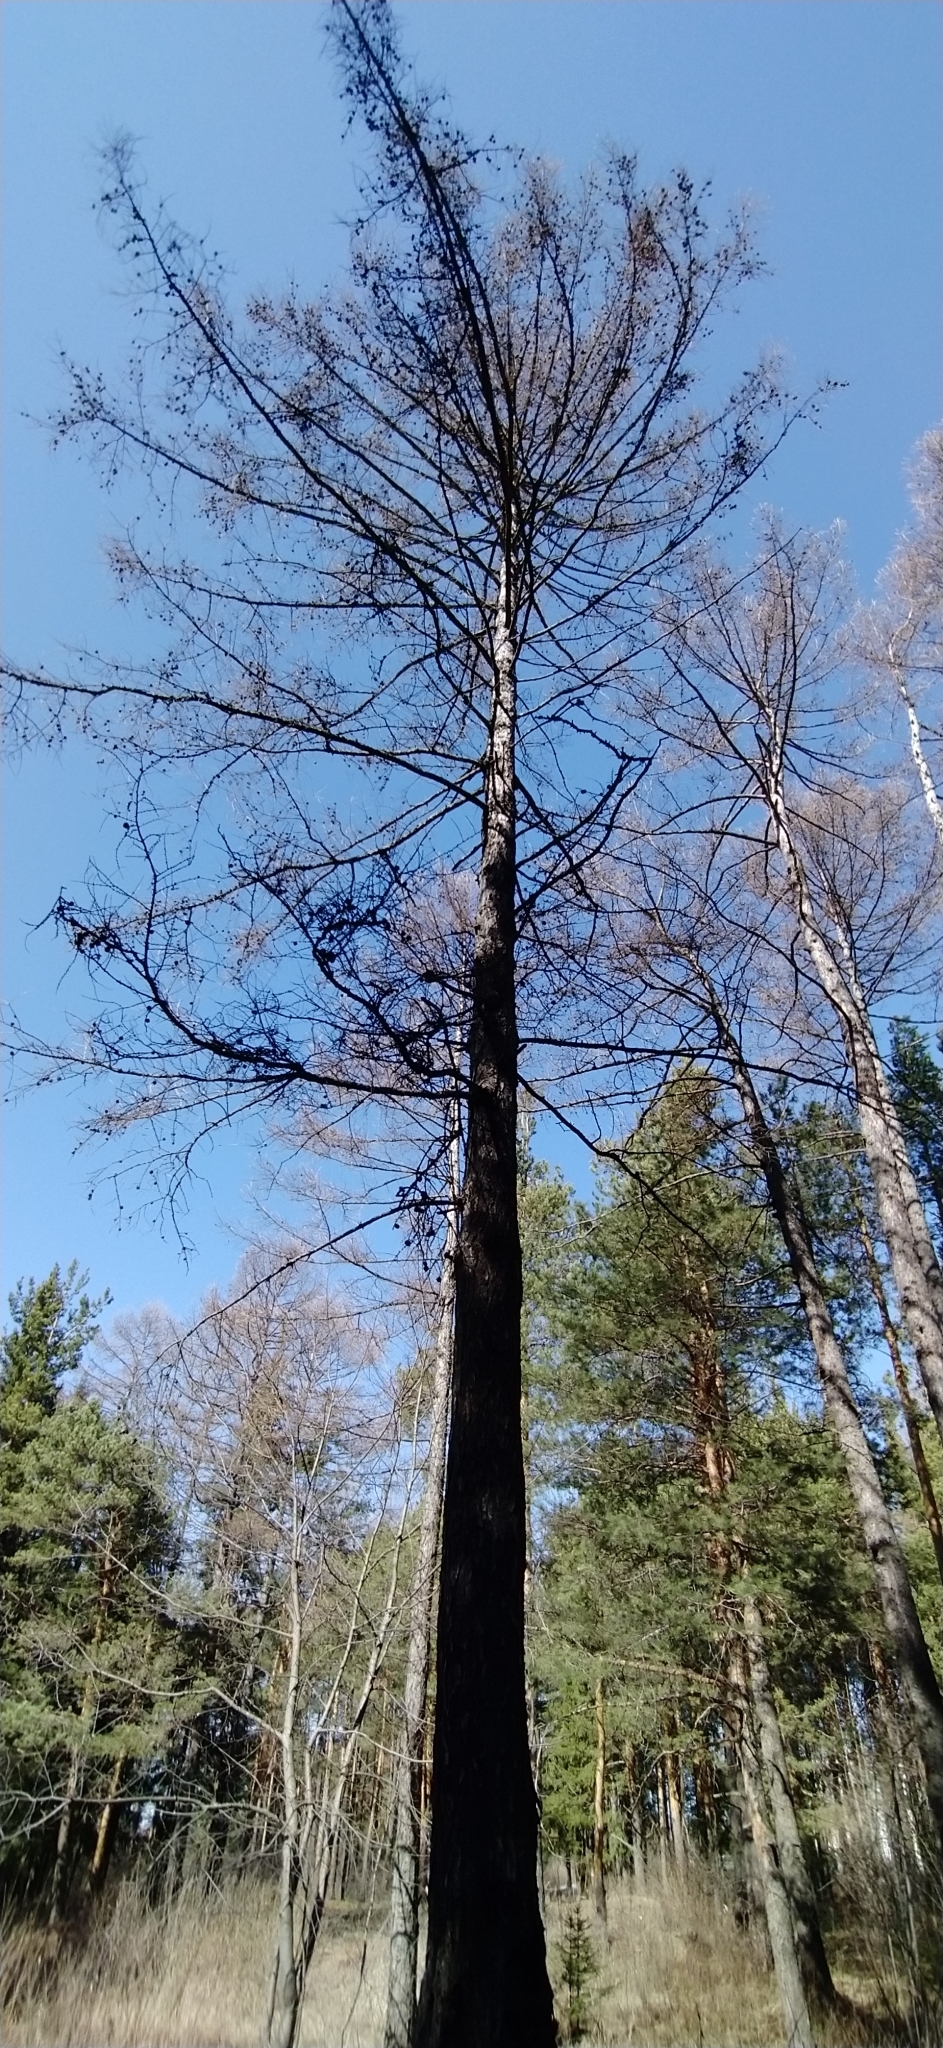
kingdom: Plantae
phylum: Tracheophyta
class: Pinopsida
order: Pinales
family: Pinaceae
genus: Larix
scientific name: Larix sibirica
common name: Siberian larch
